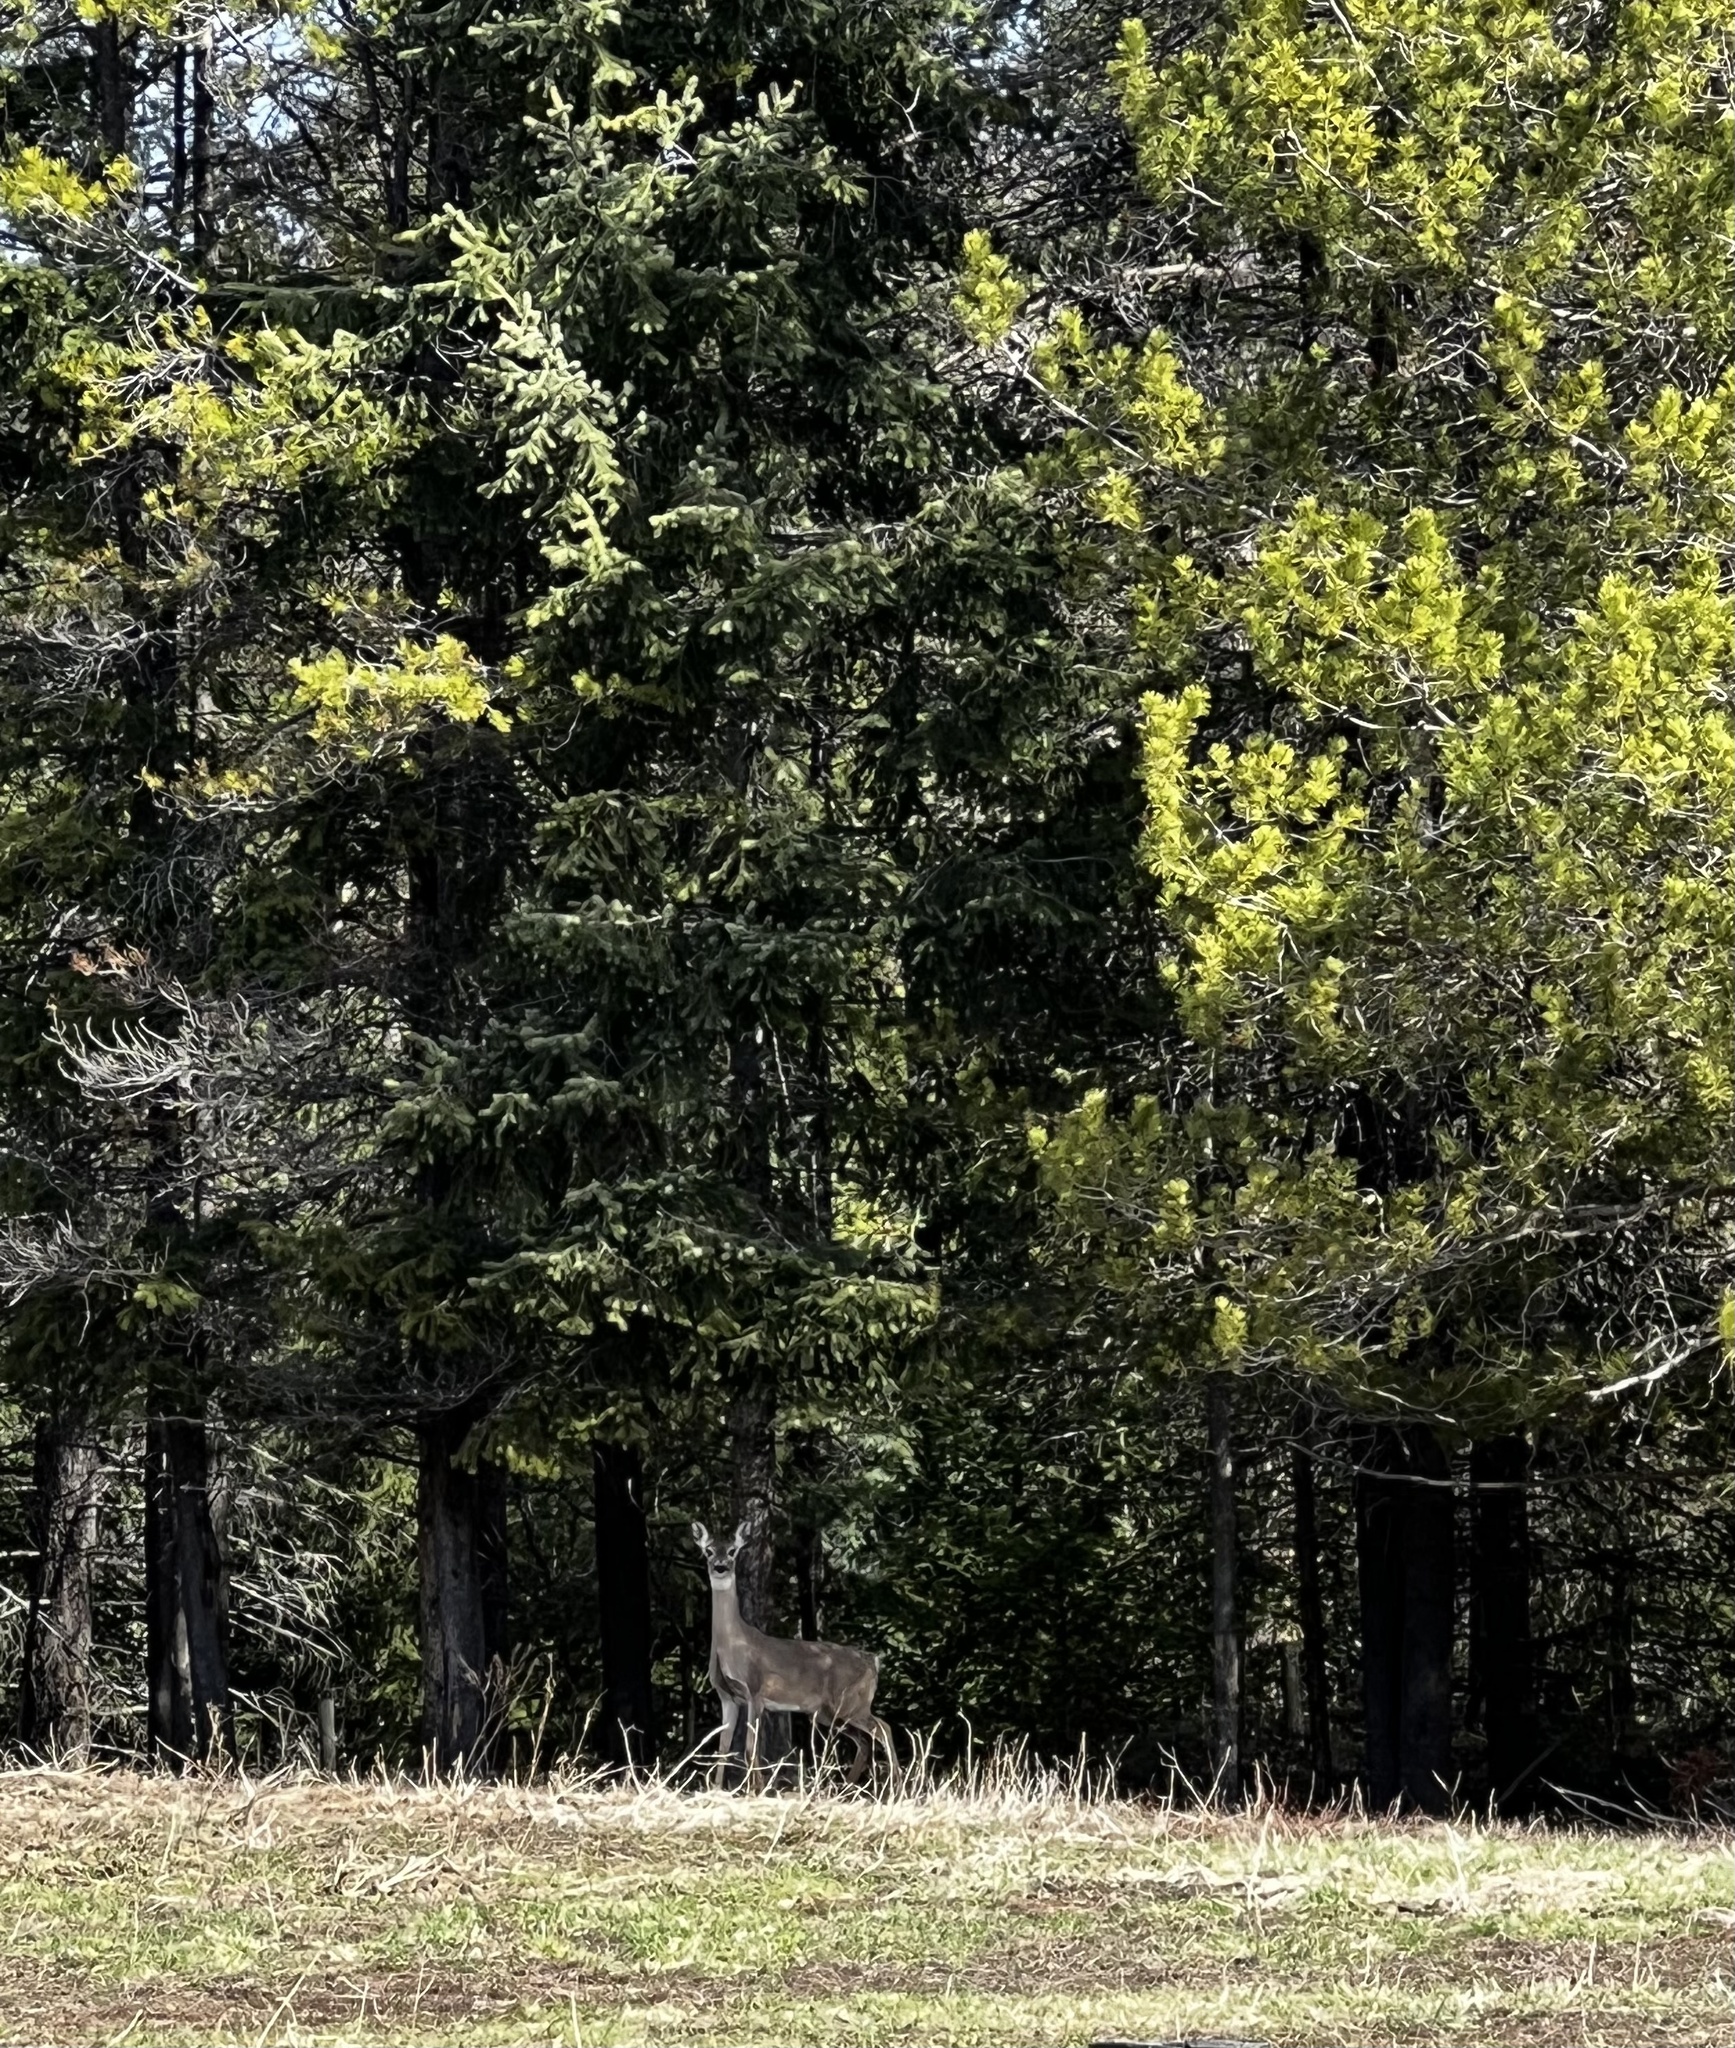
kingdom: Animalia
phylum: Chordata
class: Mammalia
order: Artiodactyla
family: Cervidae
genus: Odocoileus
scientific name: Odocoileus virginianus
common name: White-tailed deer
